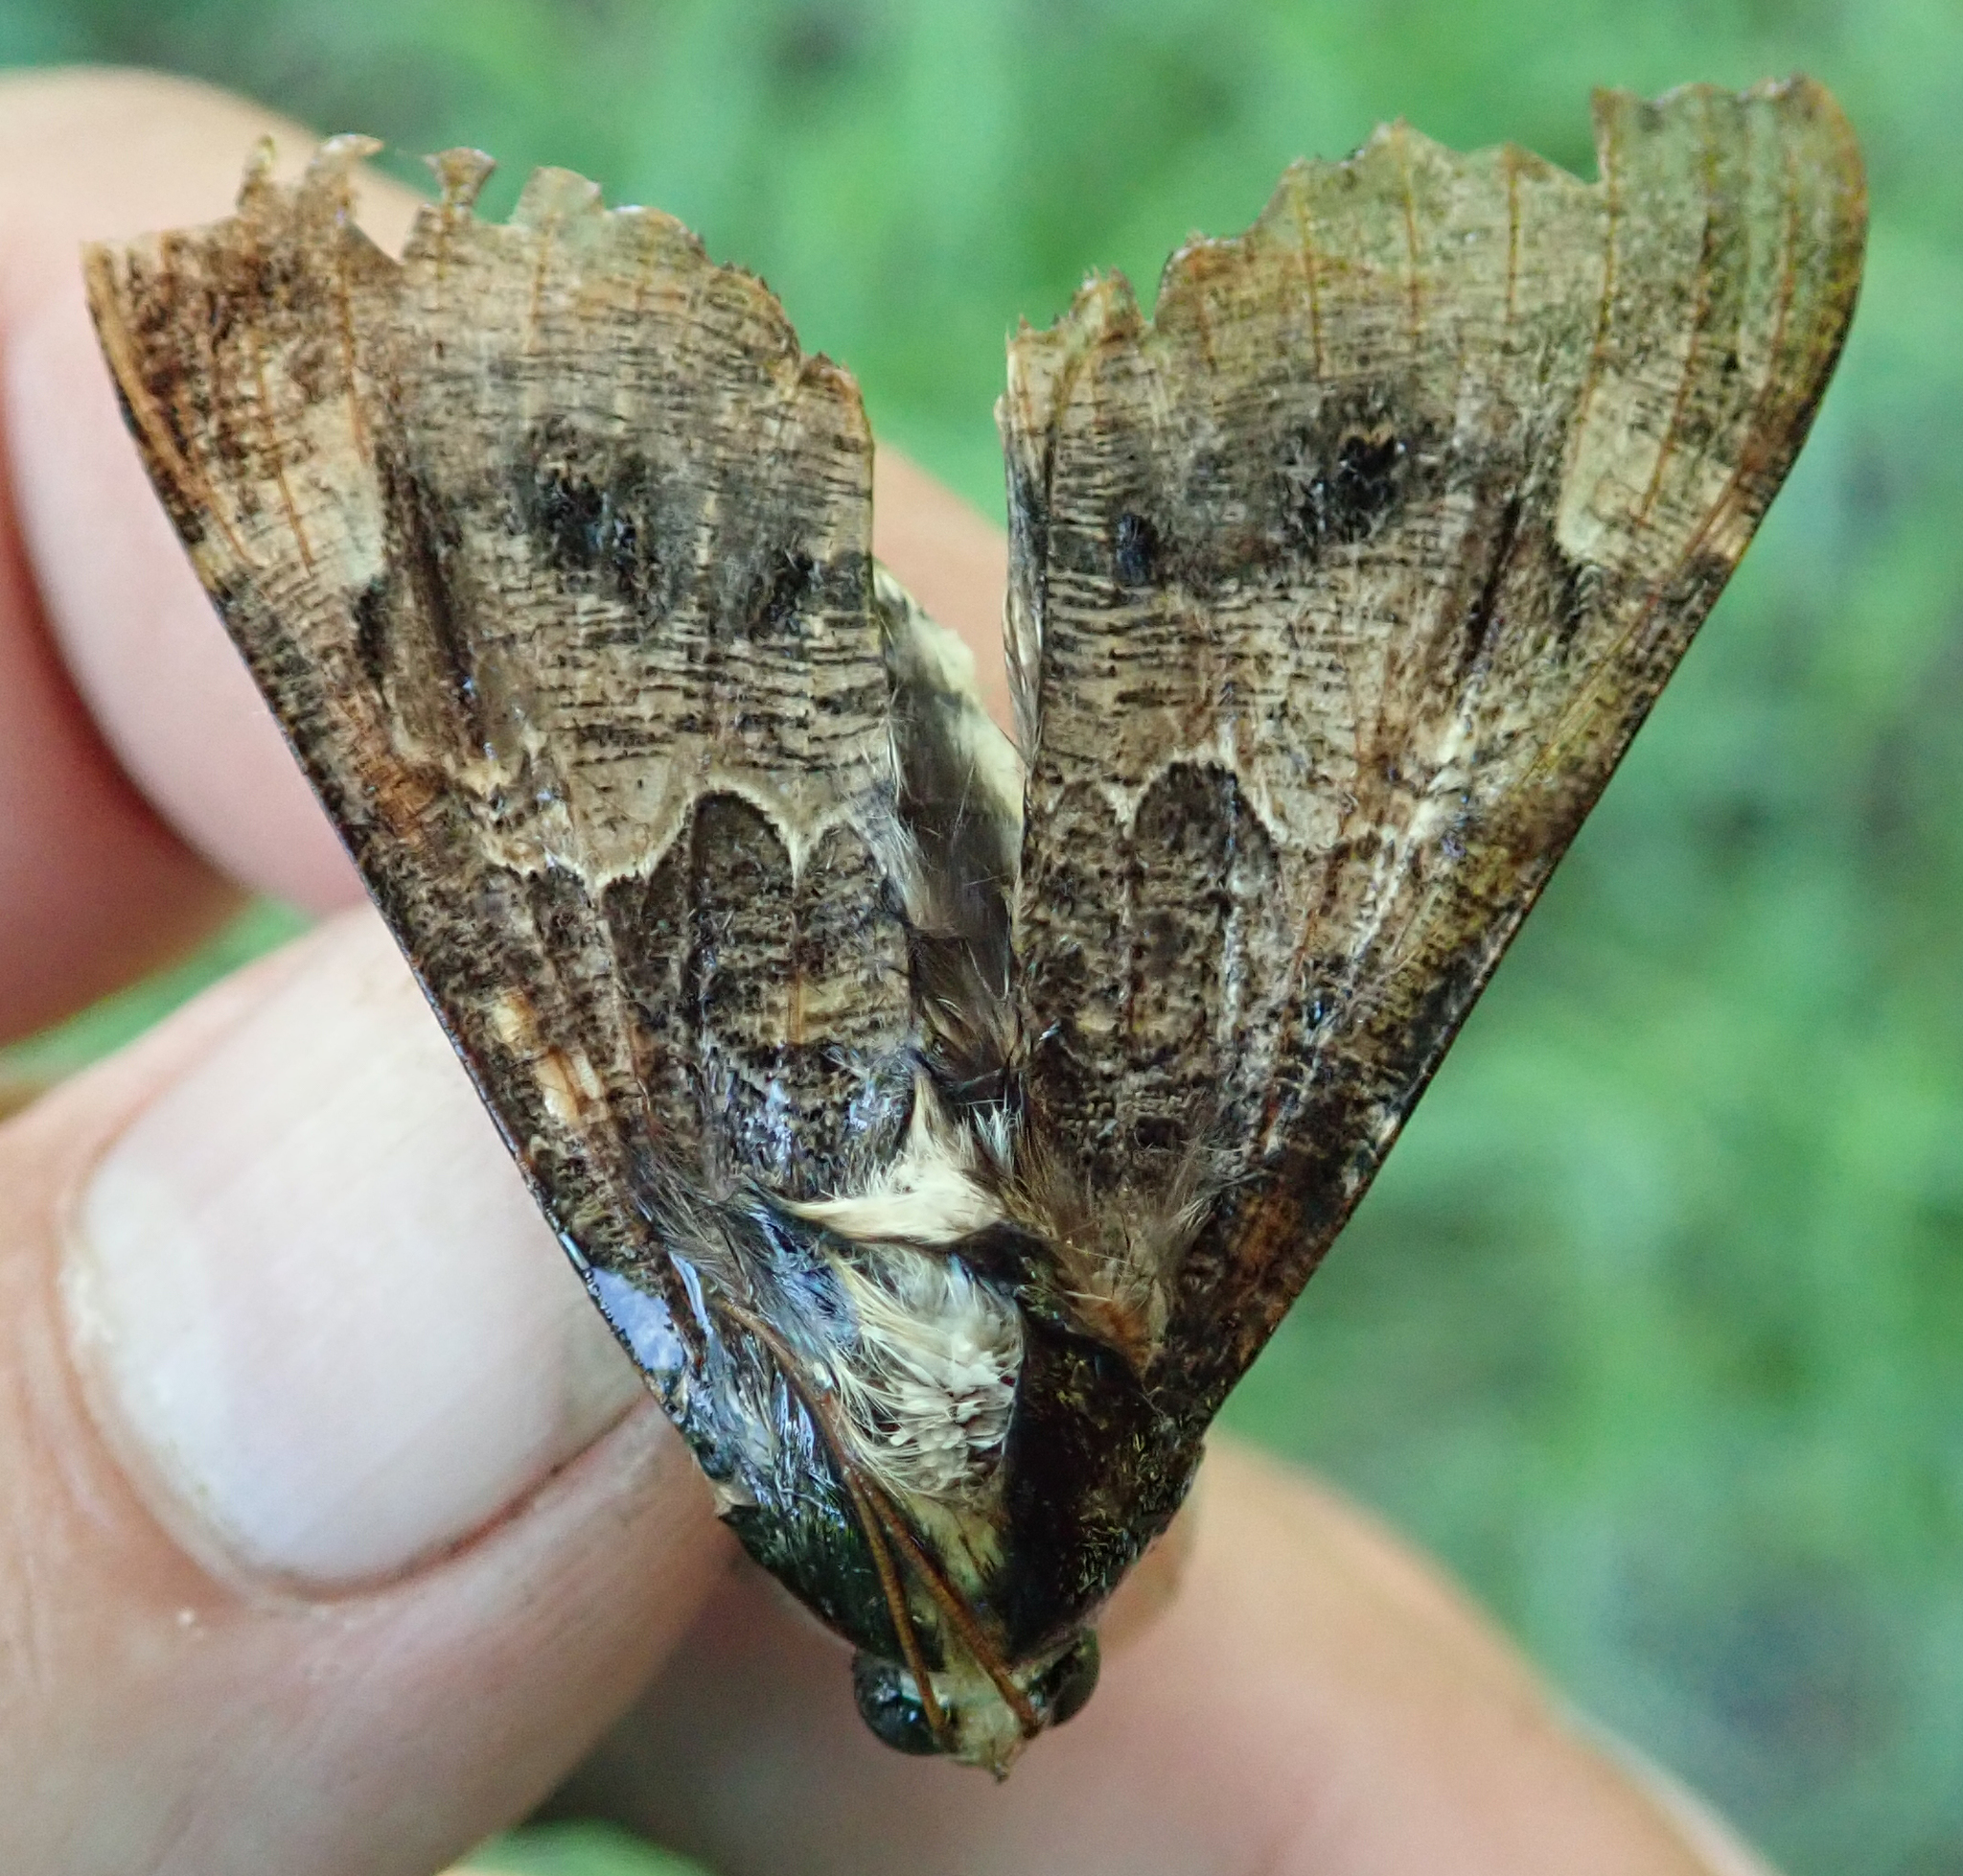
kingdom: Animalia
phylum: Arthropoda
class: Insecta
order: Lepidoptera
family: Erebidae
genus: Sphingomorpha
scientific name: Sphingomorpha chlorea
